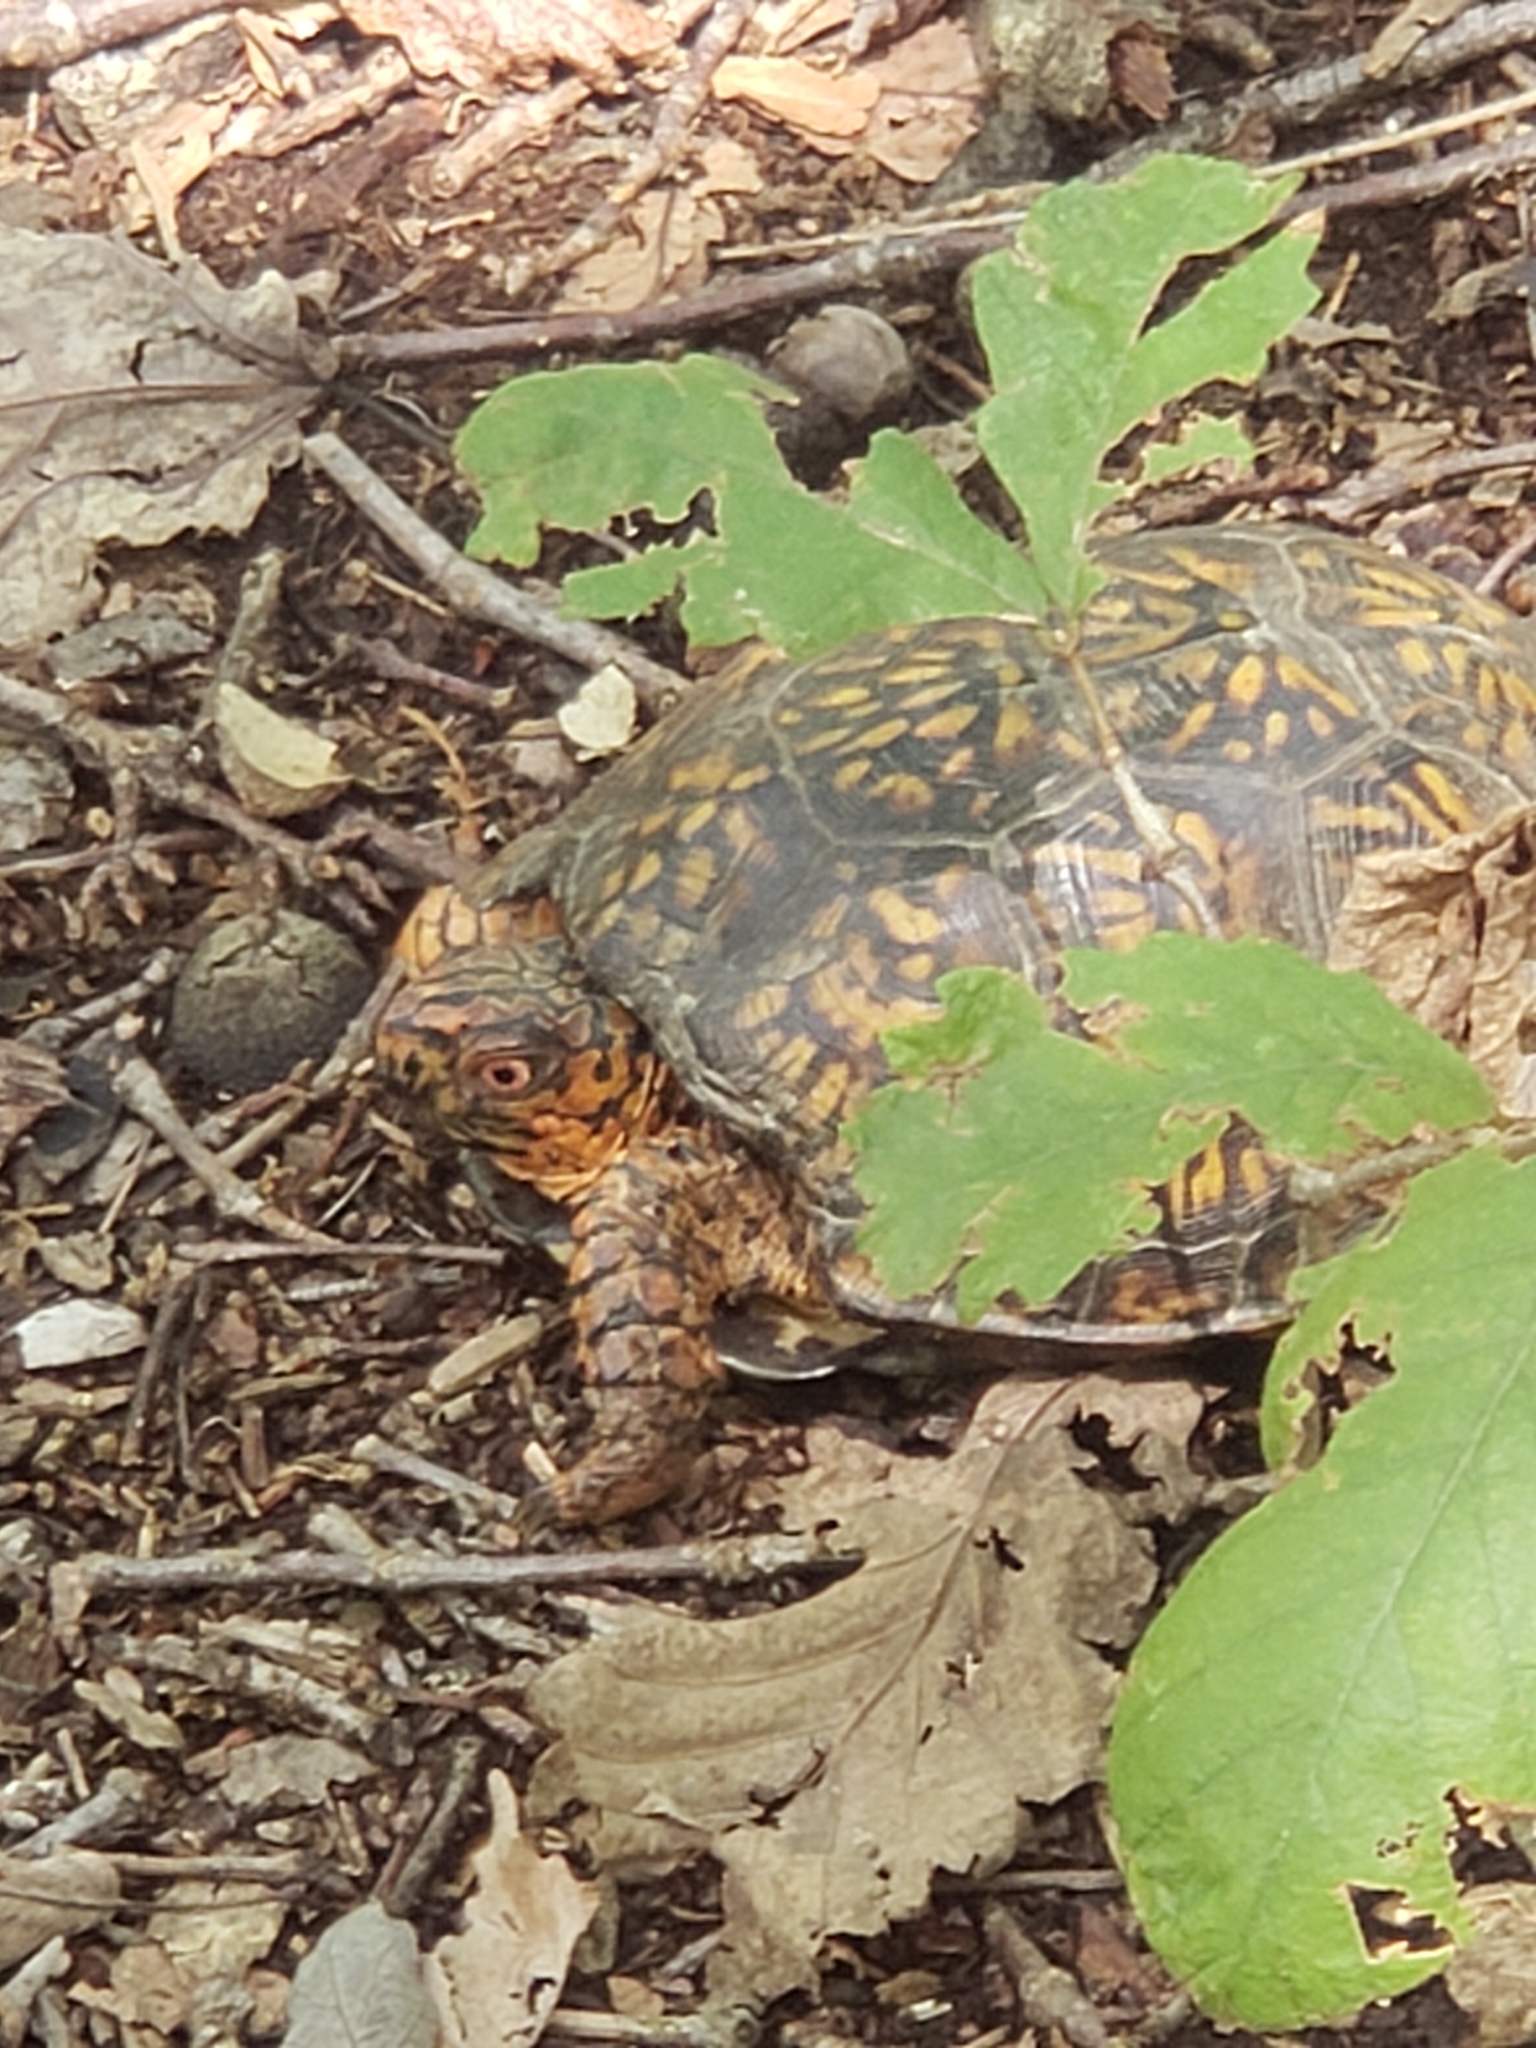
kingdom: Animalia
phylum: Chordata
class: Testudines
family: Emydidae
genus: Terrapene
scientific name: Terrapene carolina
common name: Common box turtle
